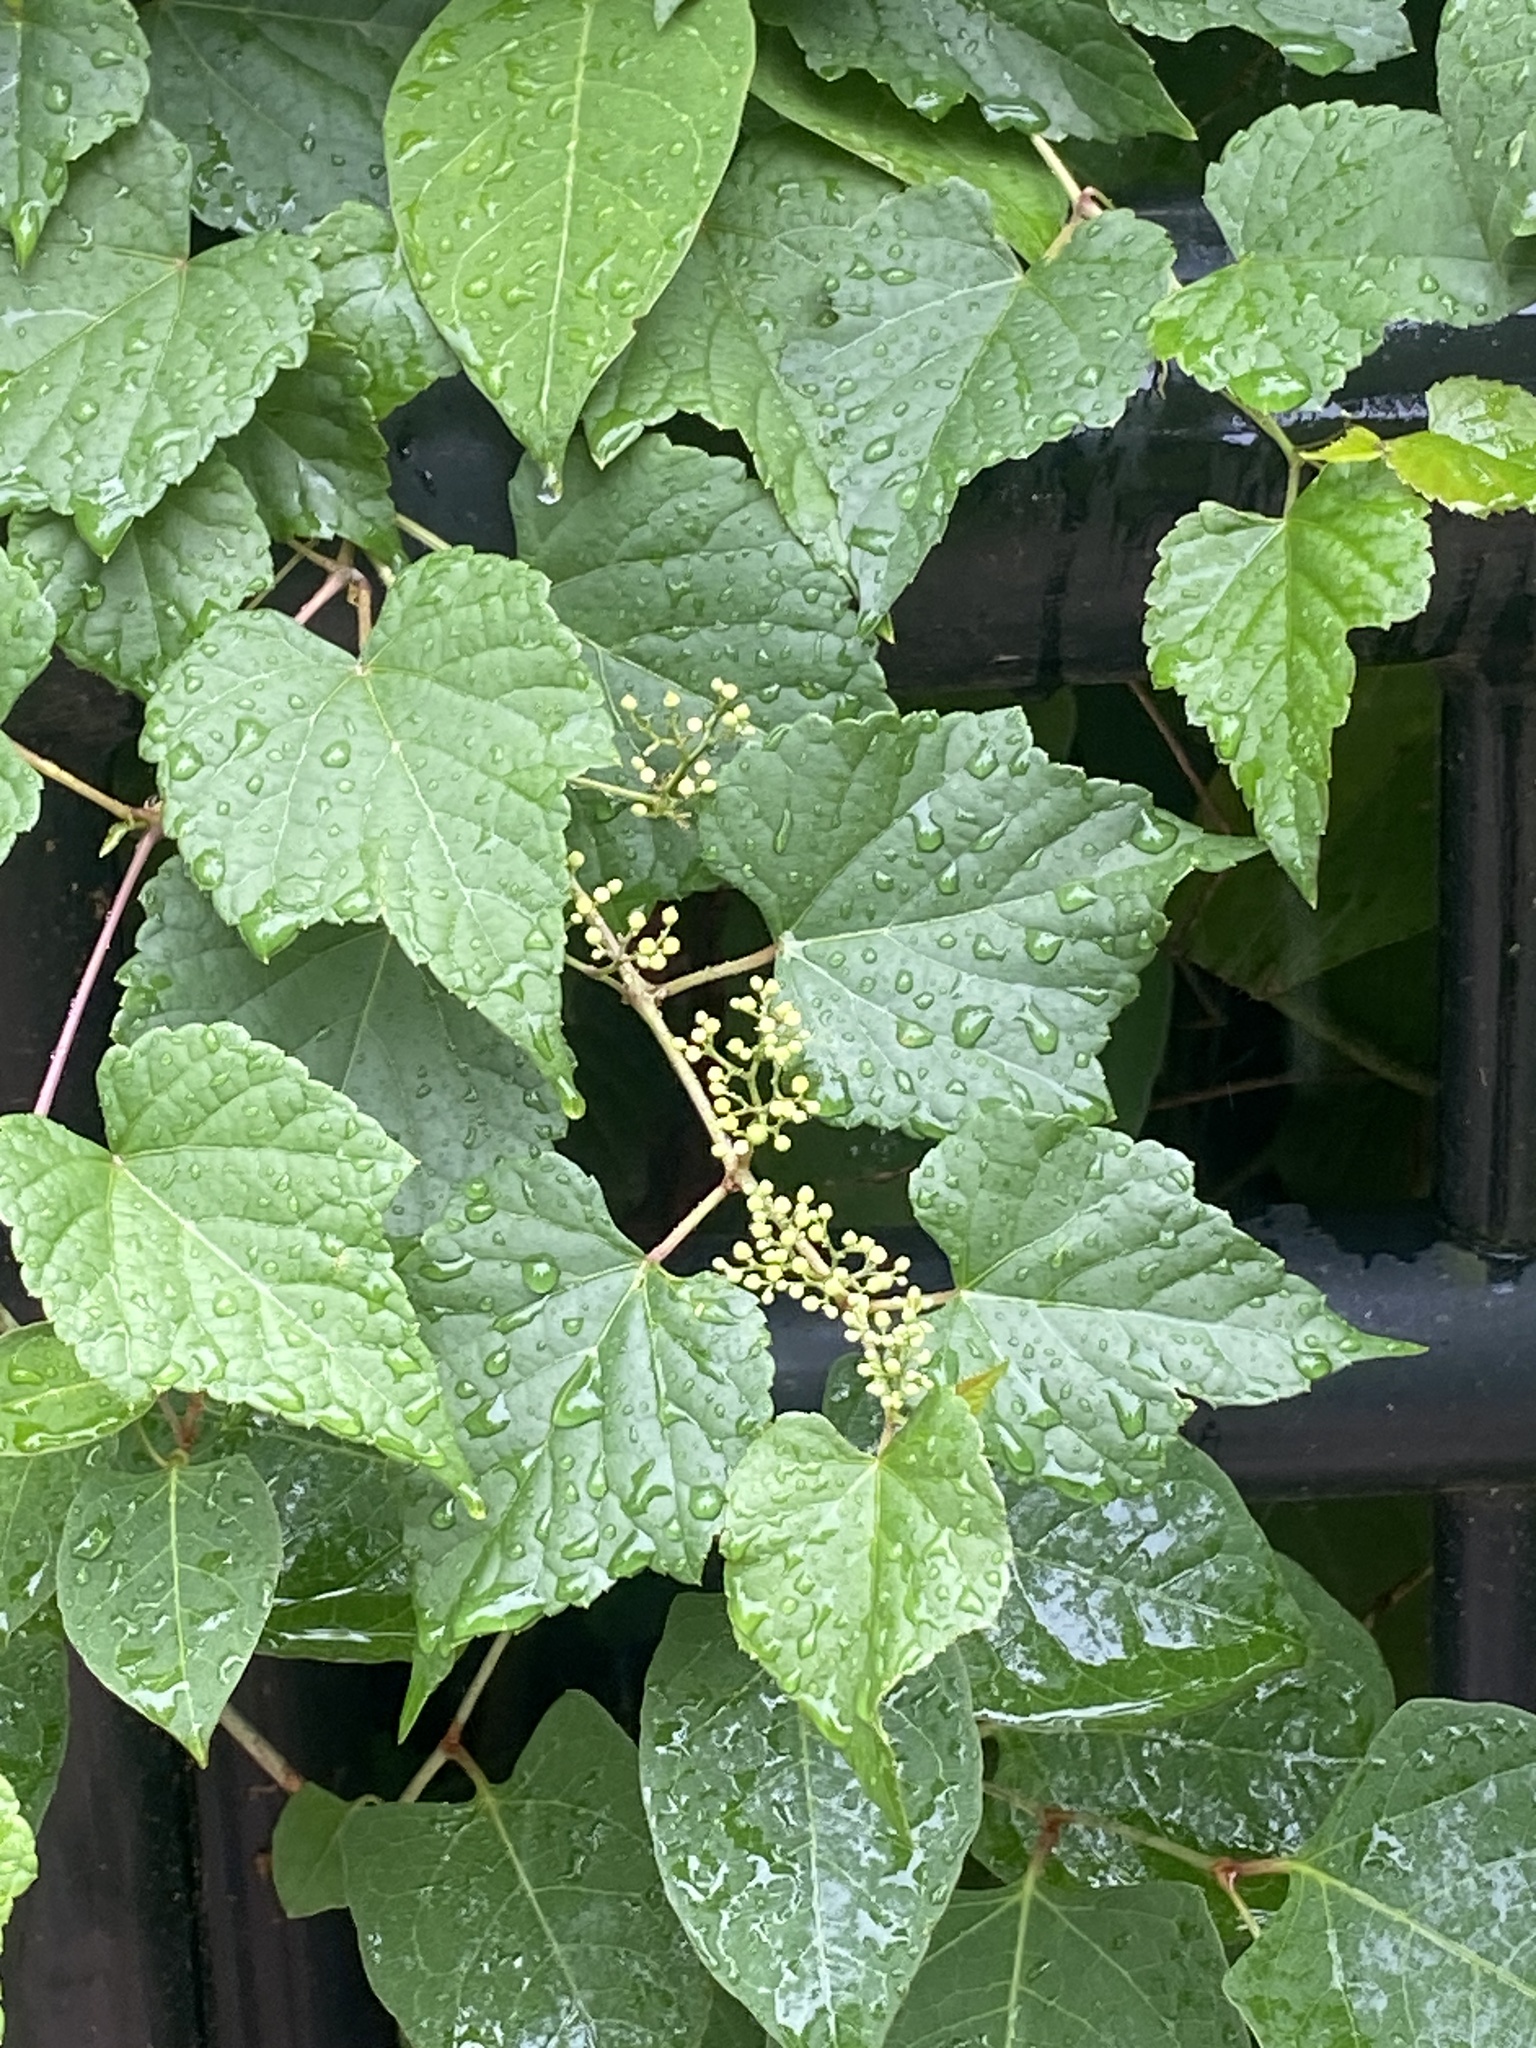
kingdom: Plantae
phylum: Tracheophyta
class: Magnoliopsida
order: Vitales
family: Vitaceae
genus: Ampelopsis
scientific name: Ampelopsis glandulosa
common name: Amur peppervine
